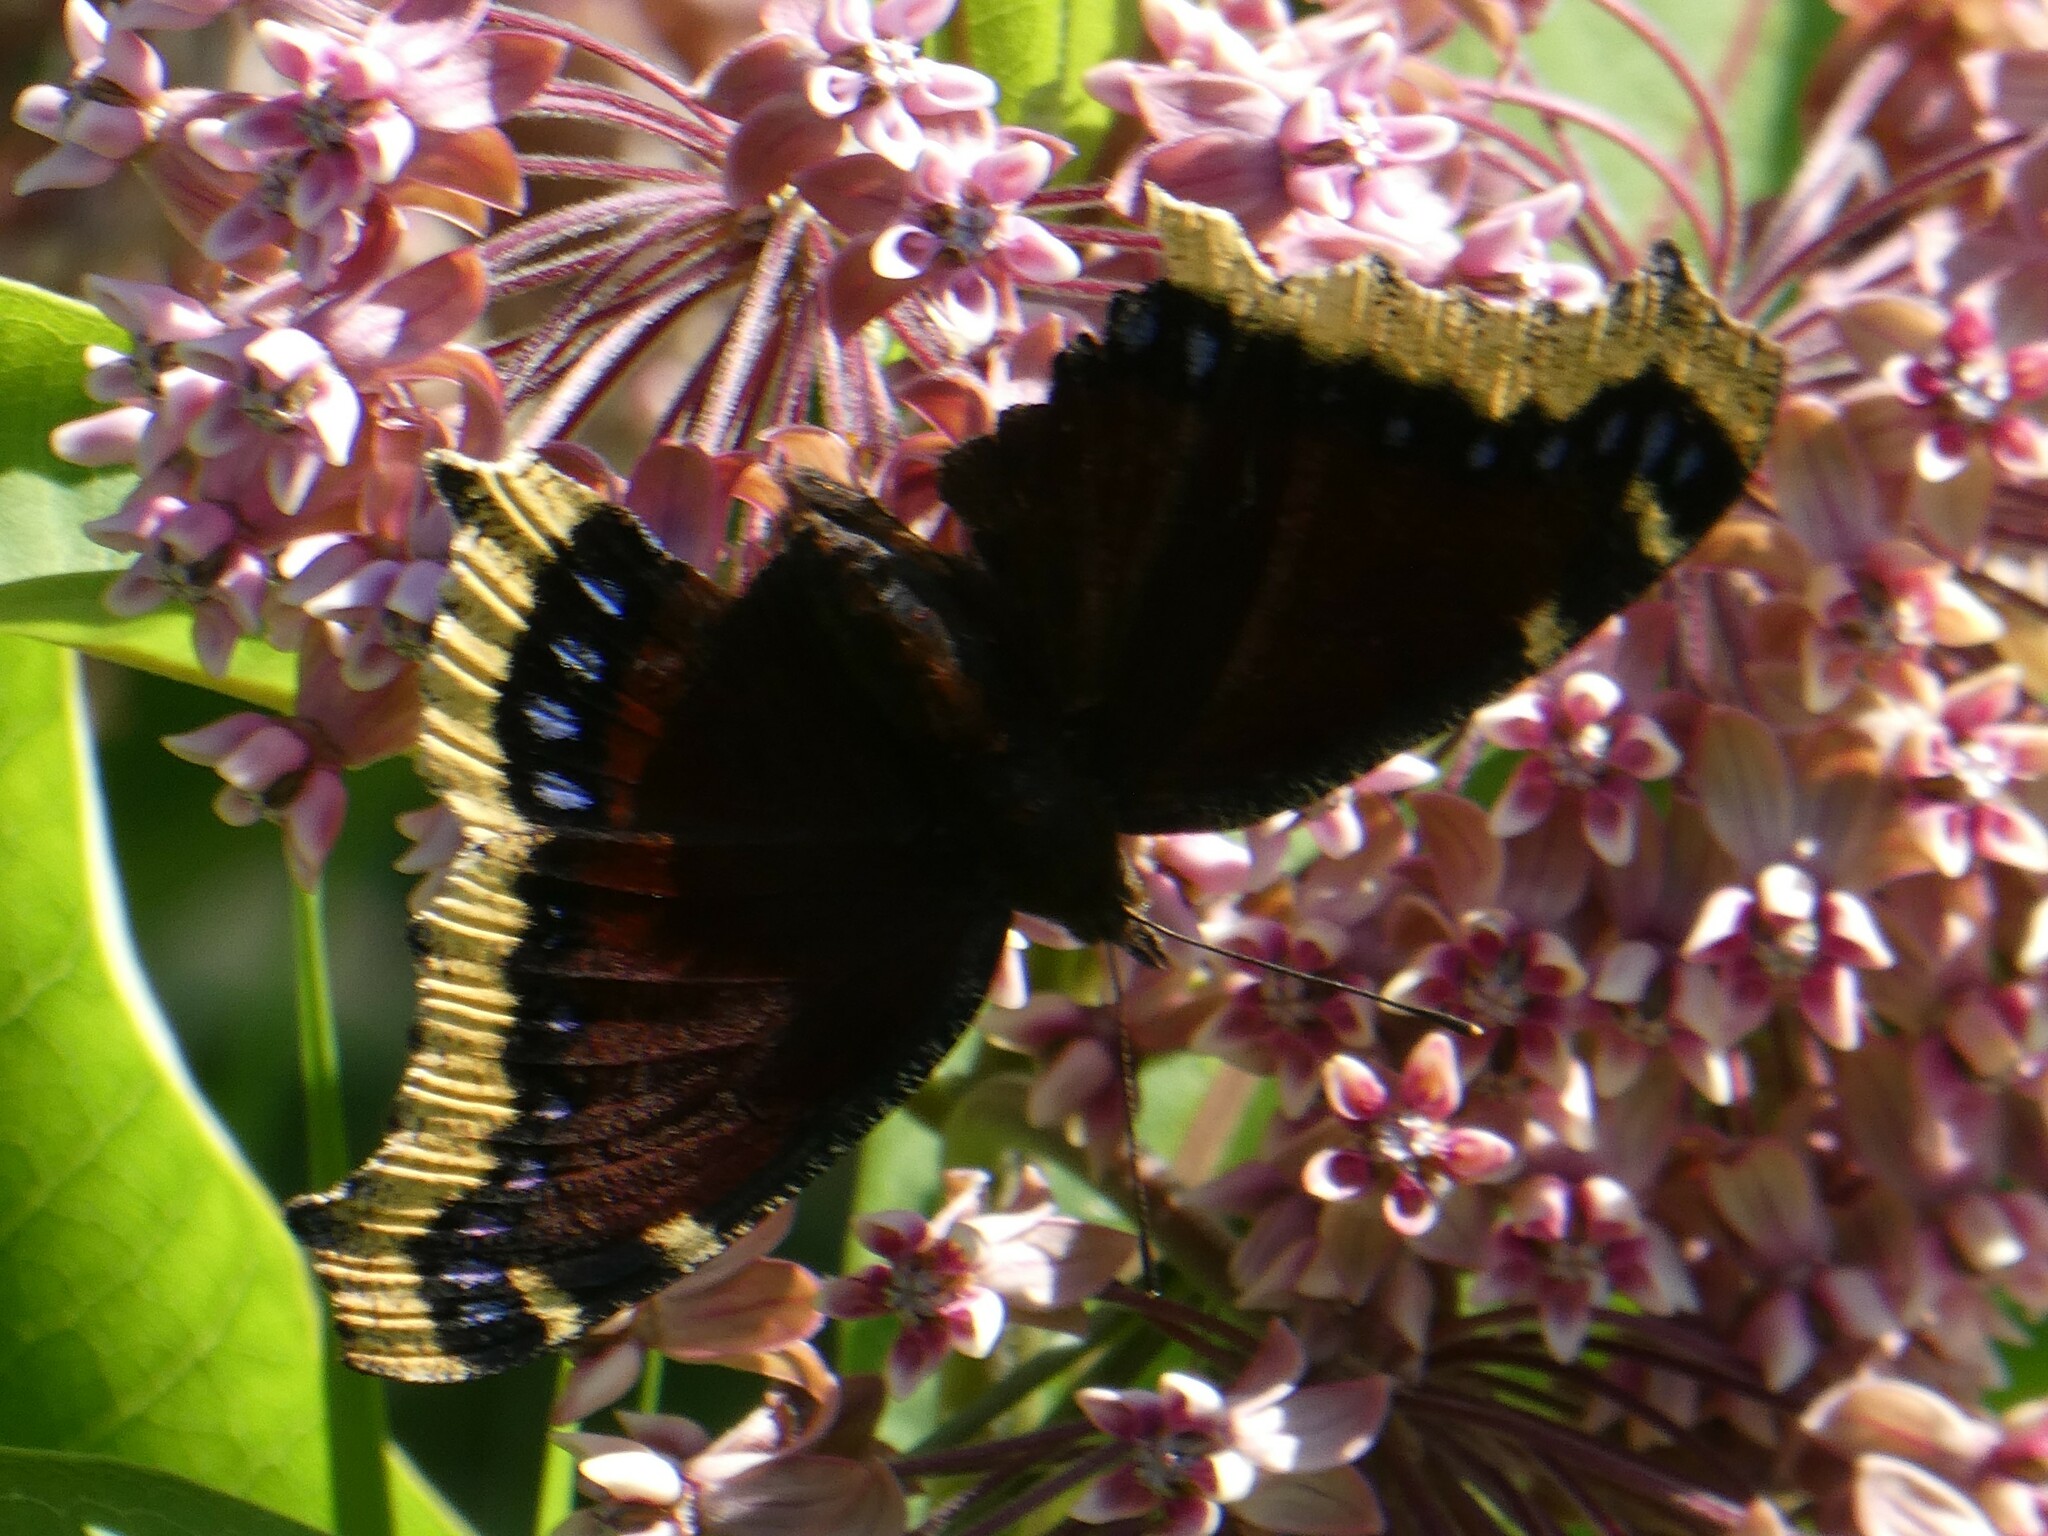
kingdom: Animalia
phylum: Arthropoda
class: Insecta
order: Lepidoptera
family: Nymphalidae
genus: Nymphalis
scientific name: Nymphalis antiopa
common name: Camberwell beauty
